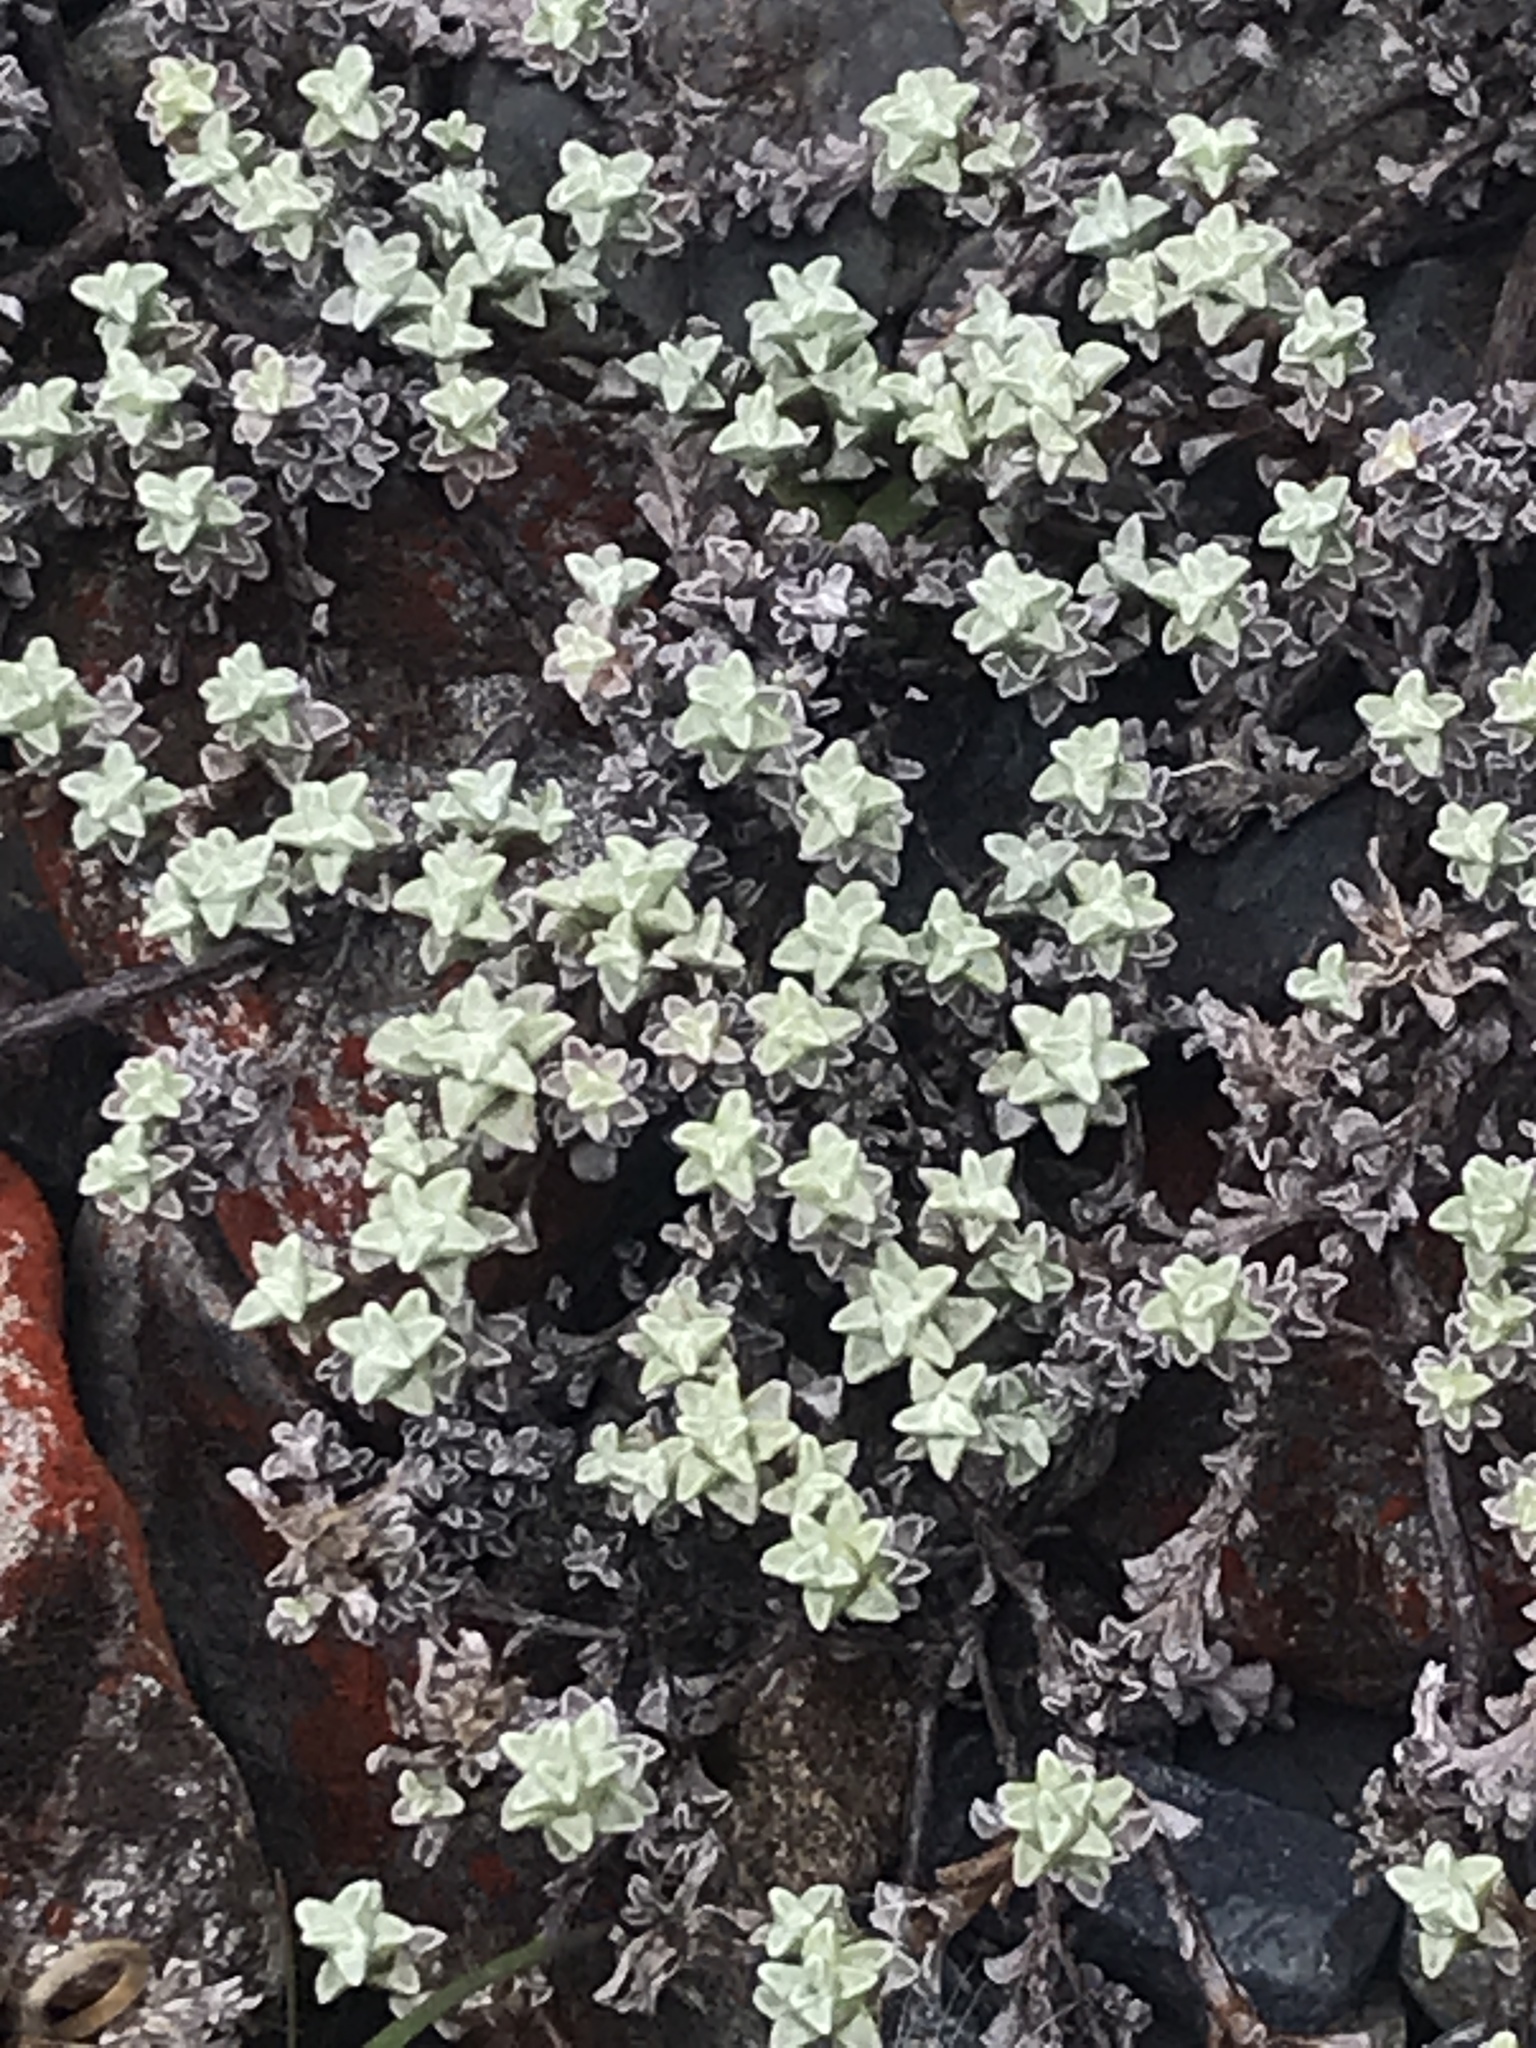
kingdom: Plantae
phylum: Tracheophyta
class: Magnoliopsida
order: Asterales
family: Asteraceae
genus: Raoulia
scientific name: Raoulia tenuicaulis
